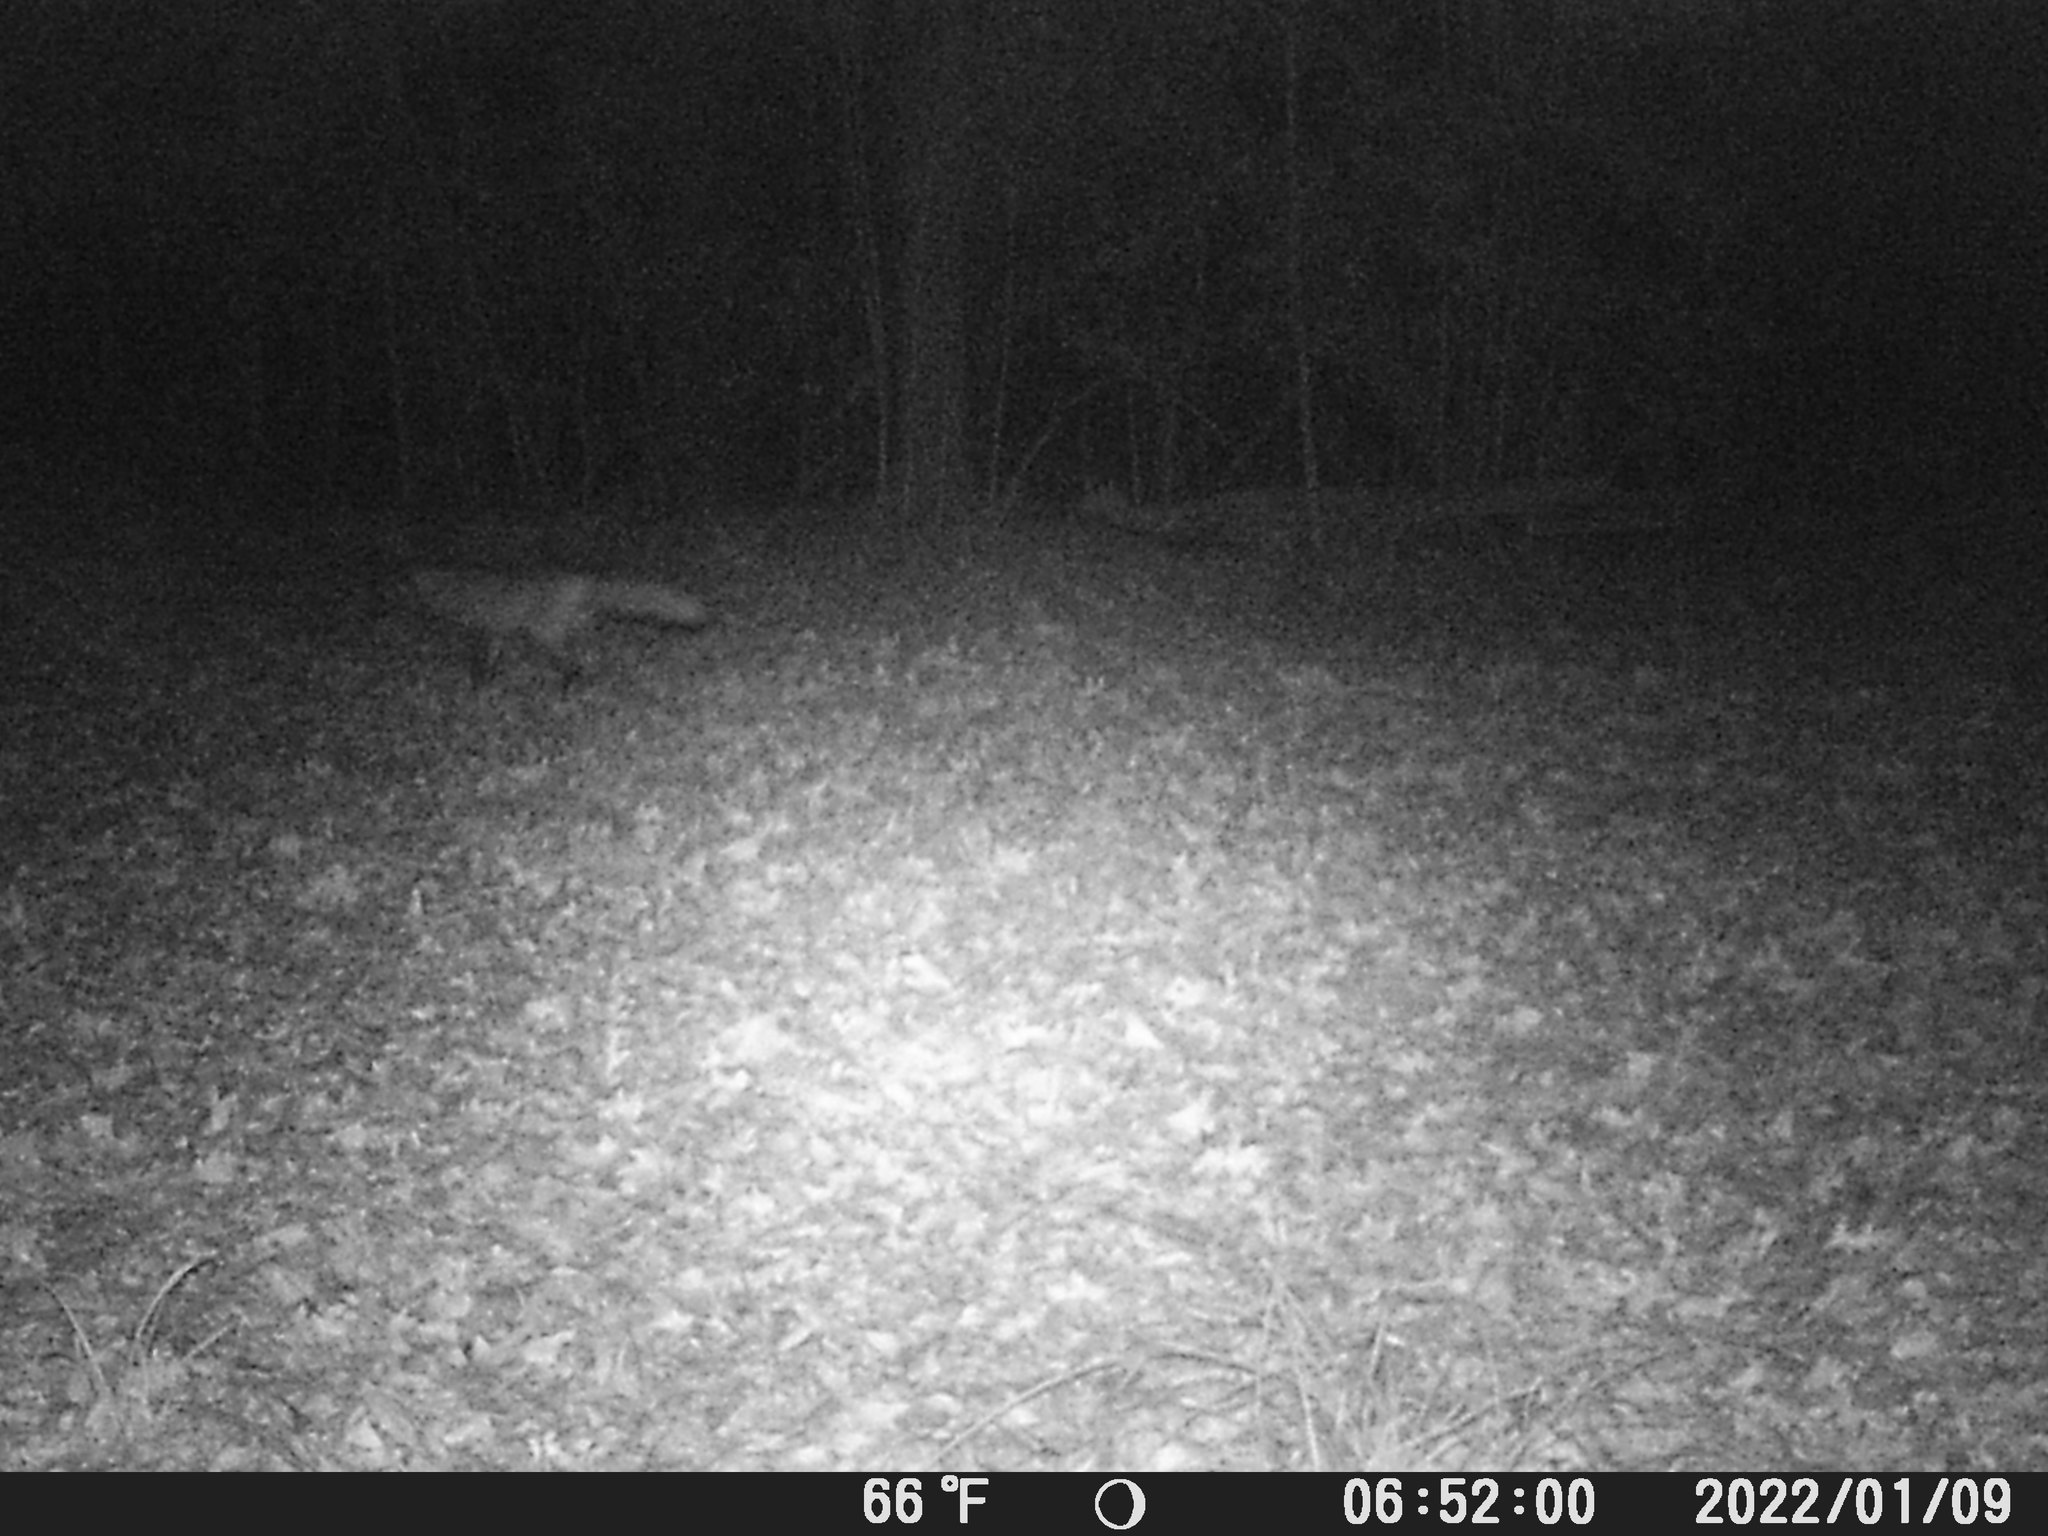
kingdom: Animalia
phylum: Chordata
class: Mammalia
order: Carnivora
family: Canidae
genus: Vulpes
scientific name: Vulpes vulpes
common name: Red fox
